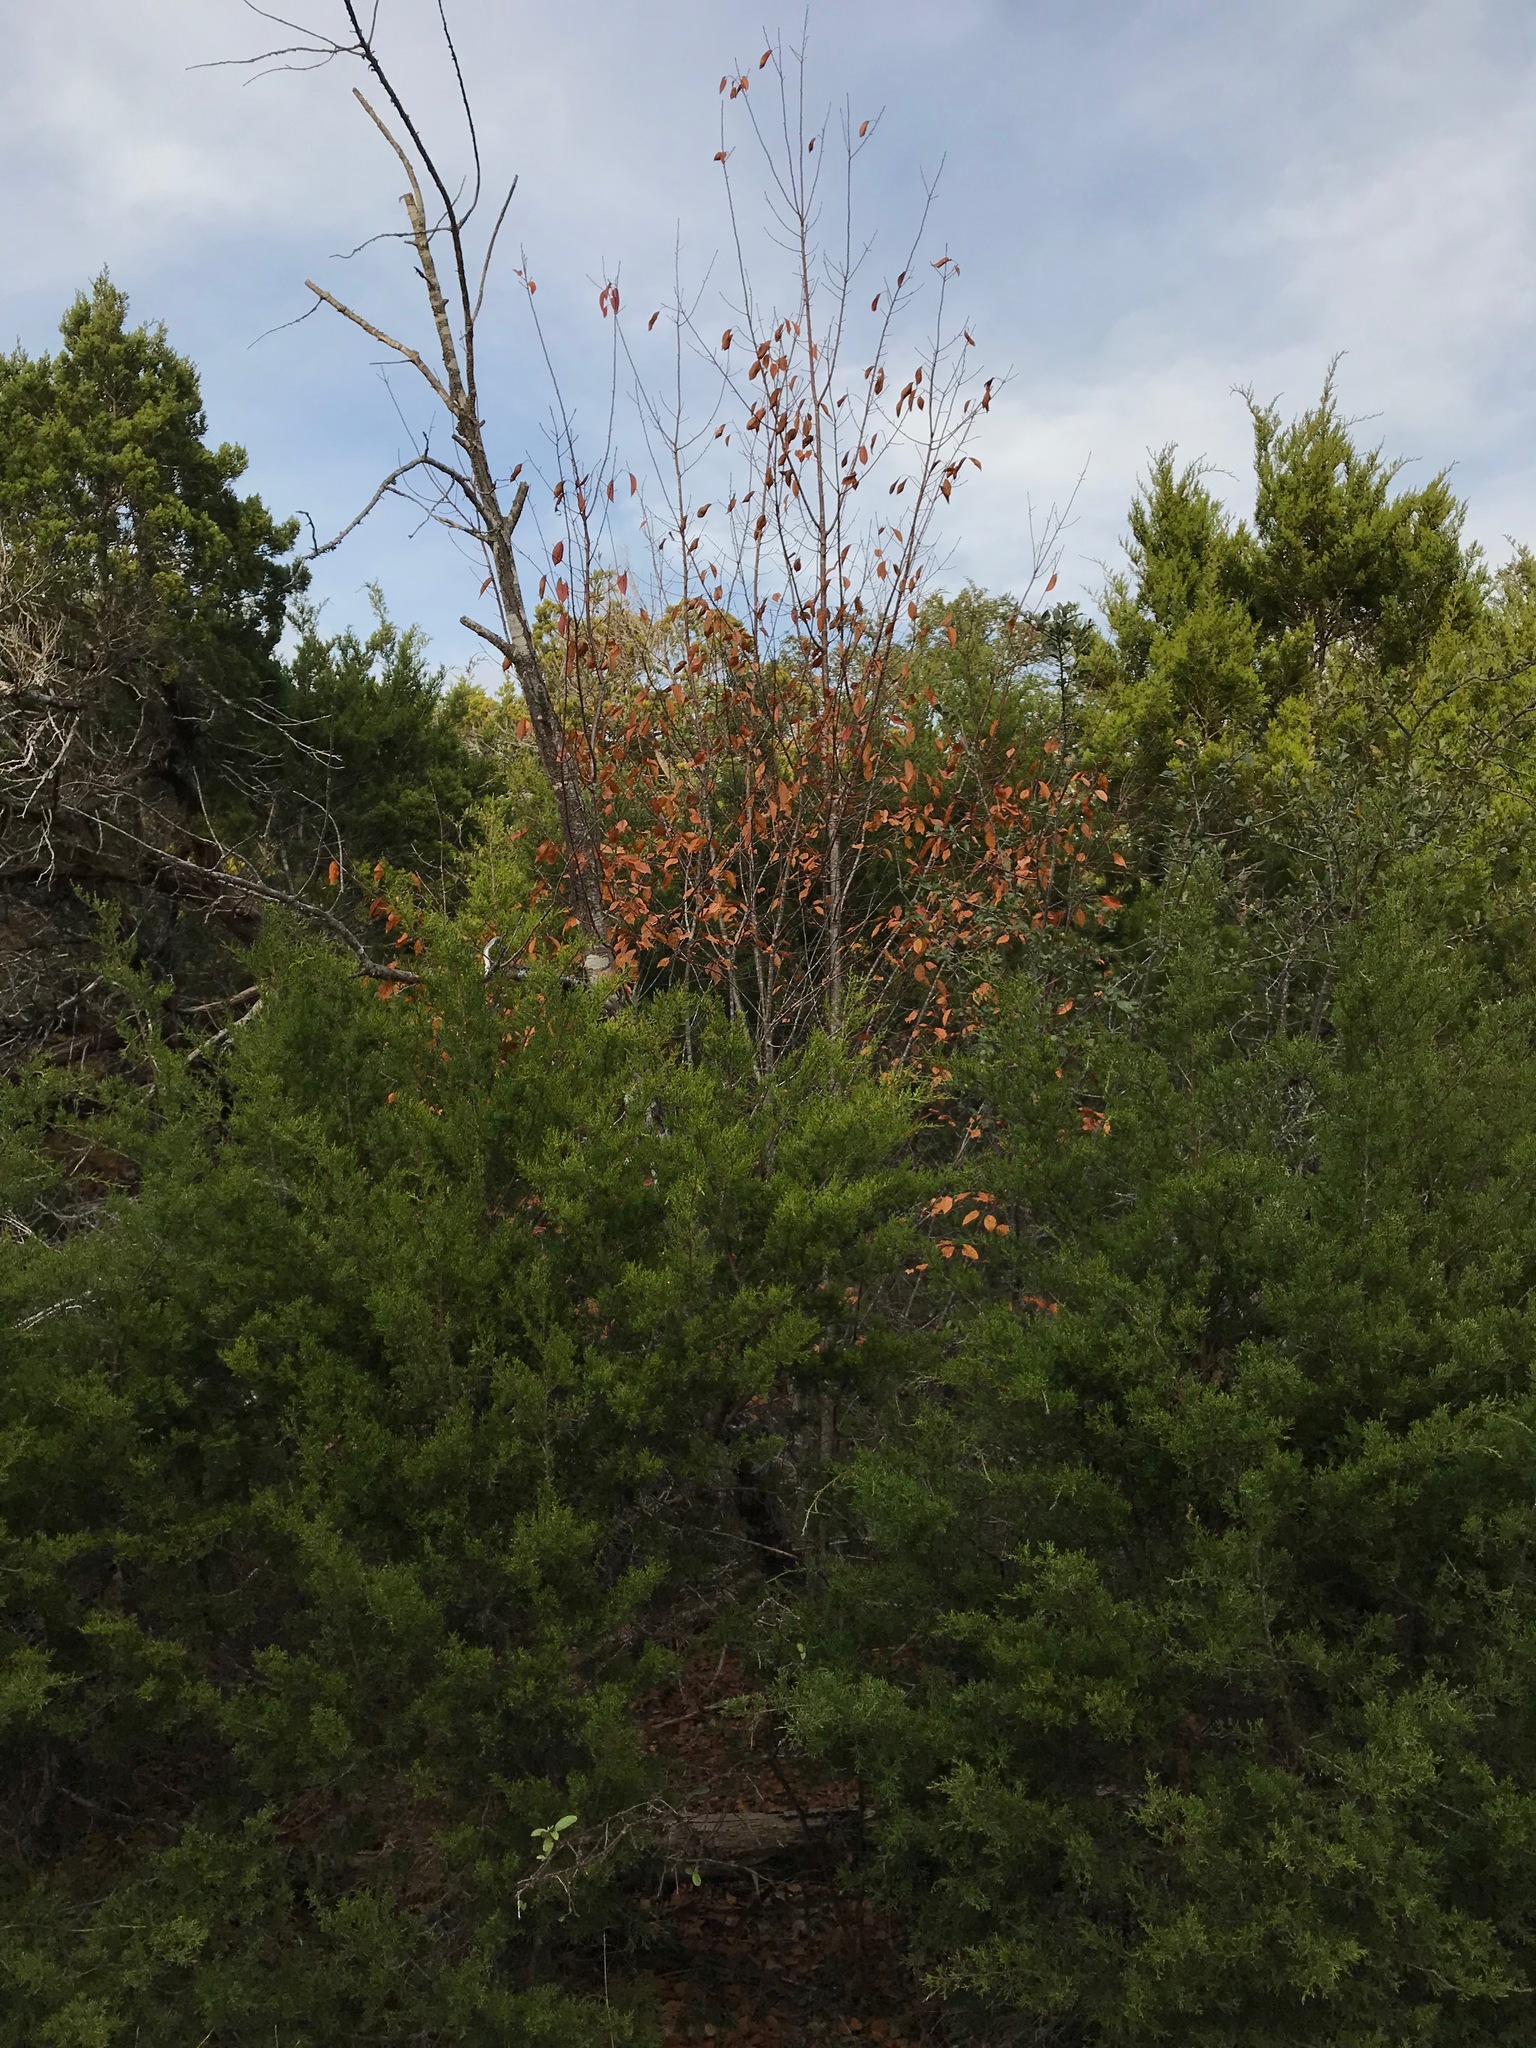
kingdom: Plantae
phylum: Tracheophyta
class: Magnoliopsida
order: Rosales
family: Rosaceae
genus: Prunus
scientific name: Prunus serotina
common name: Black cherry
